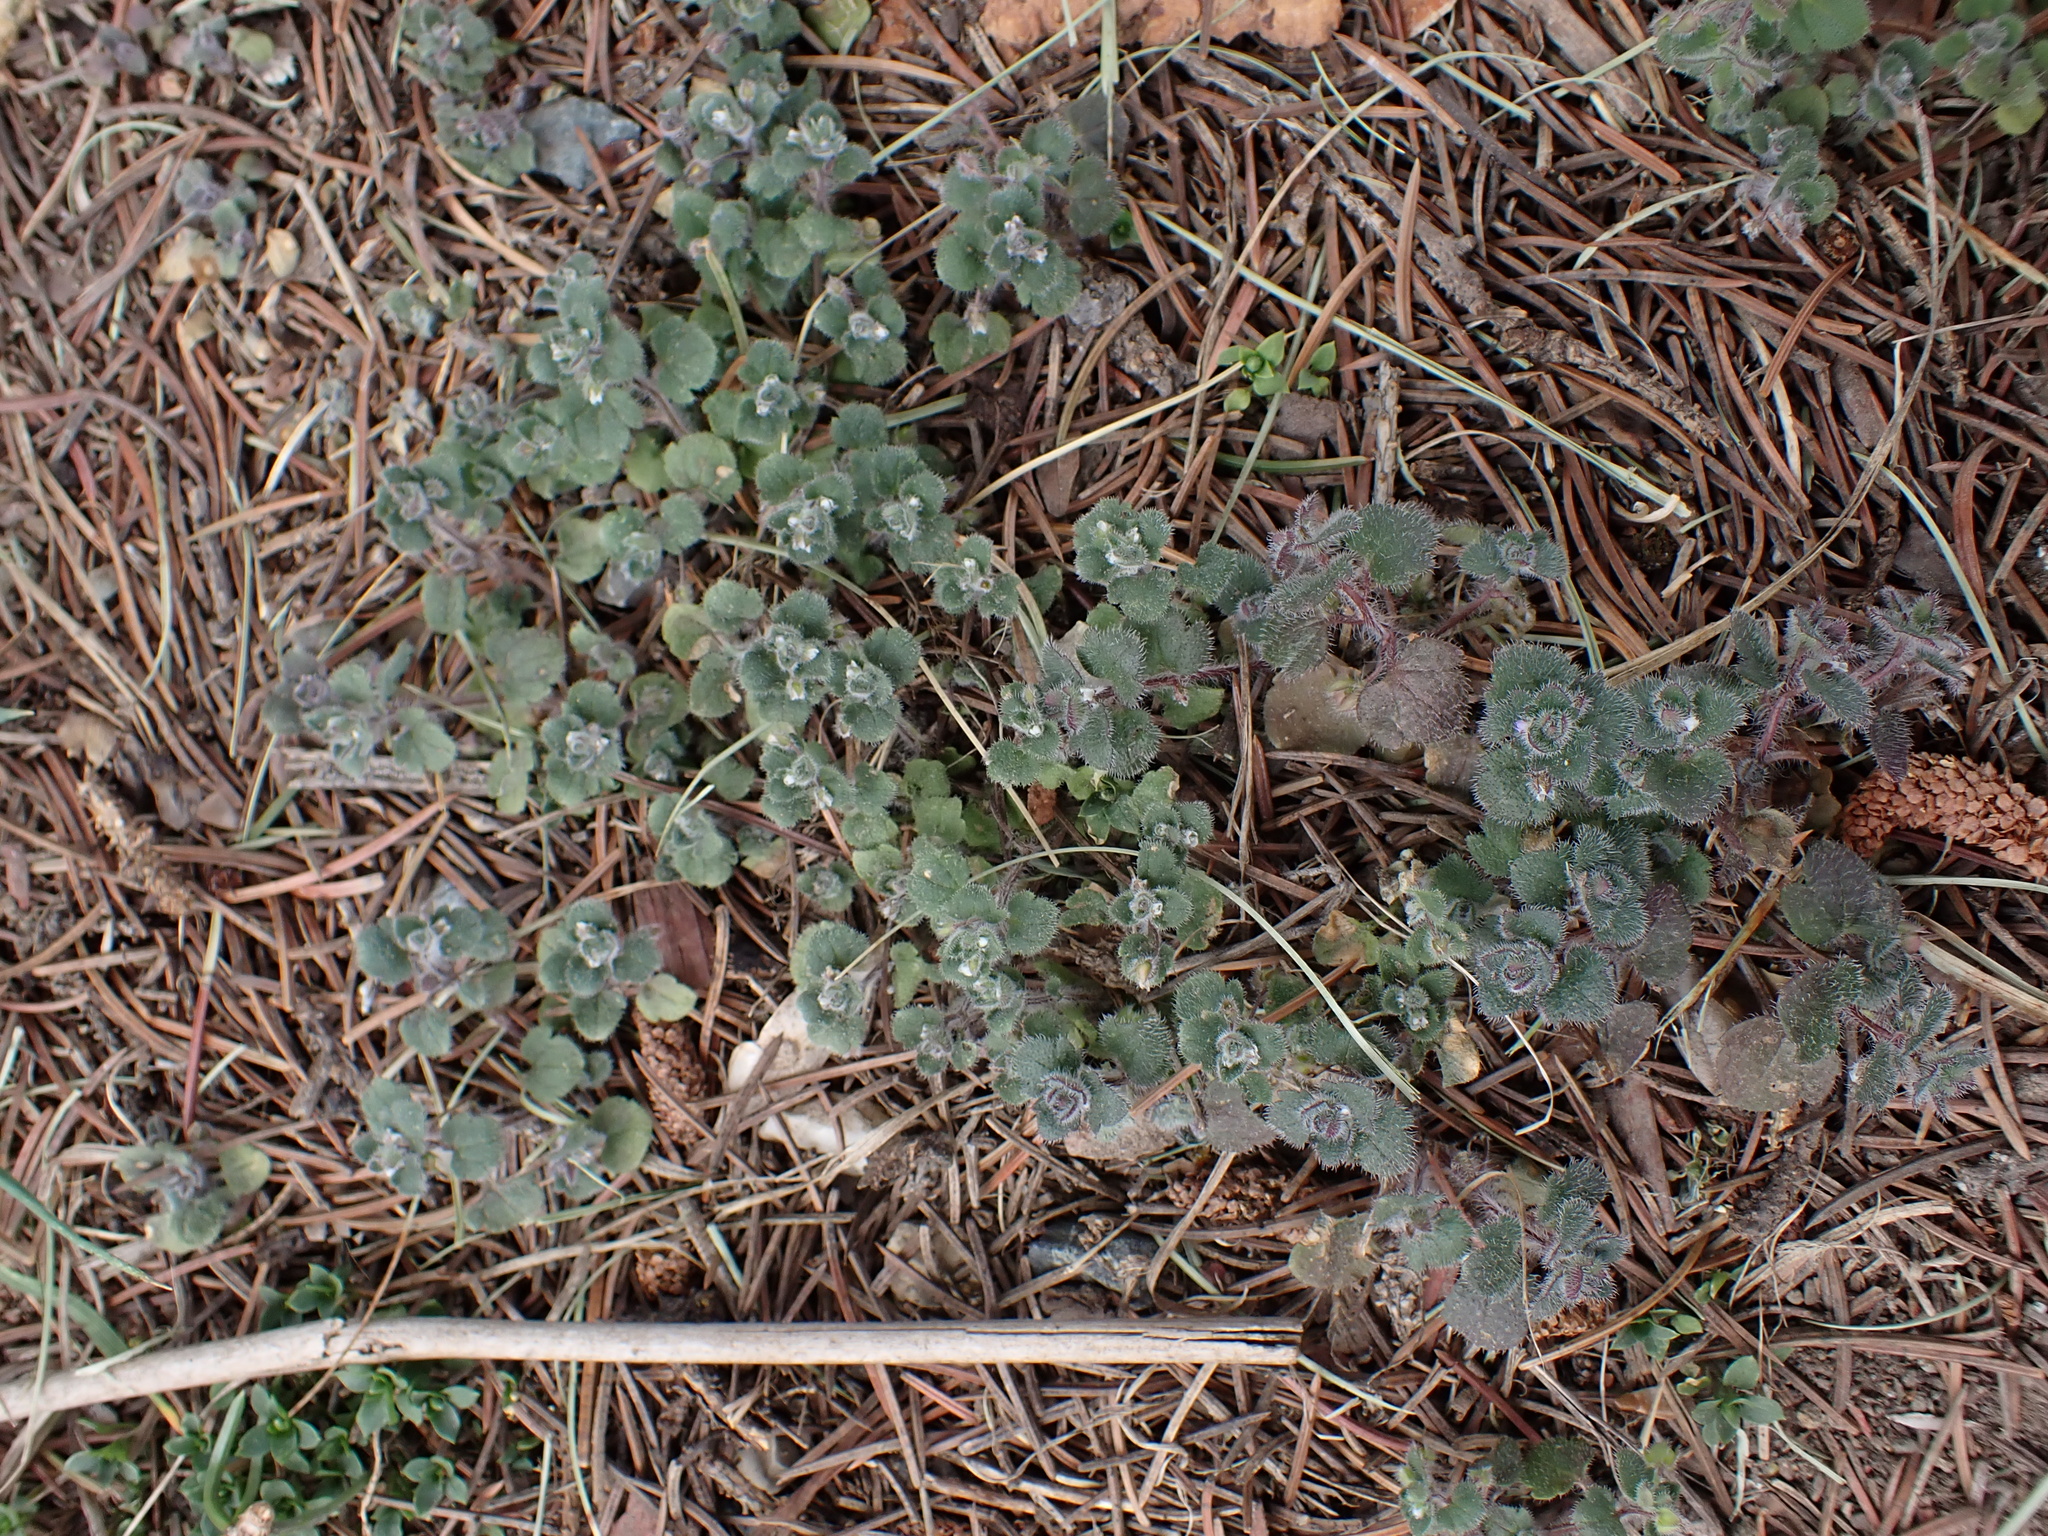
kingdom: Plantae
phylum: Tracheophyta
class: Magnoliopsida
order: Lamiales
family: Plantaginaceae
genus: Veronica
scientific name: Veronica sublobata
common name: False ivy-leaved speedwell
